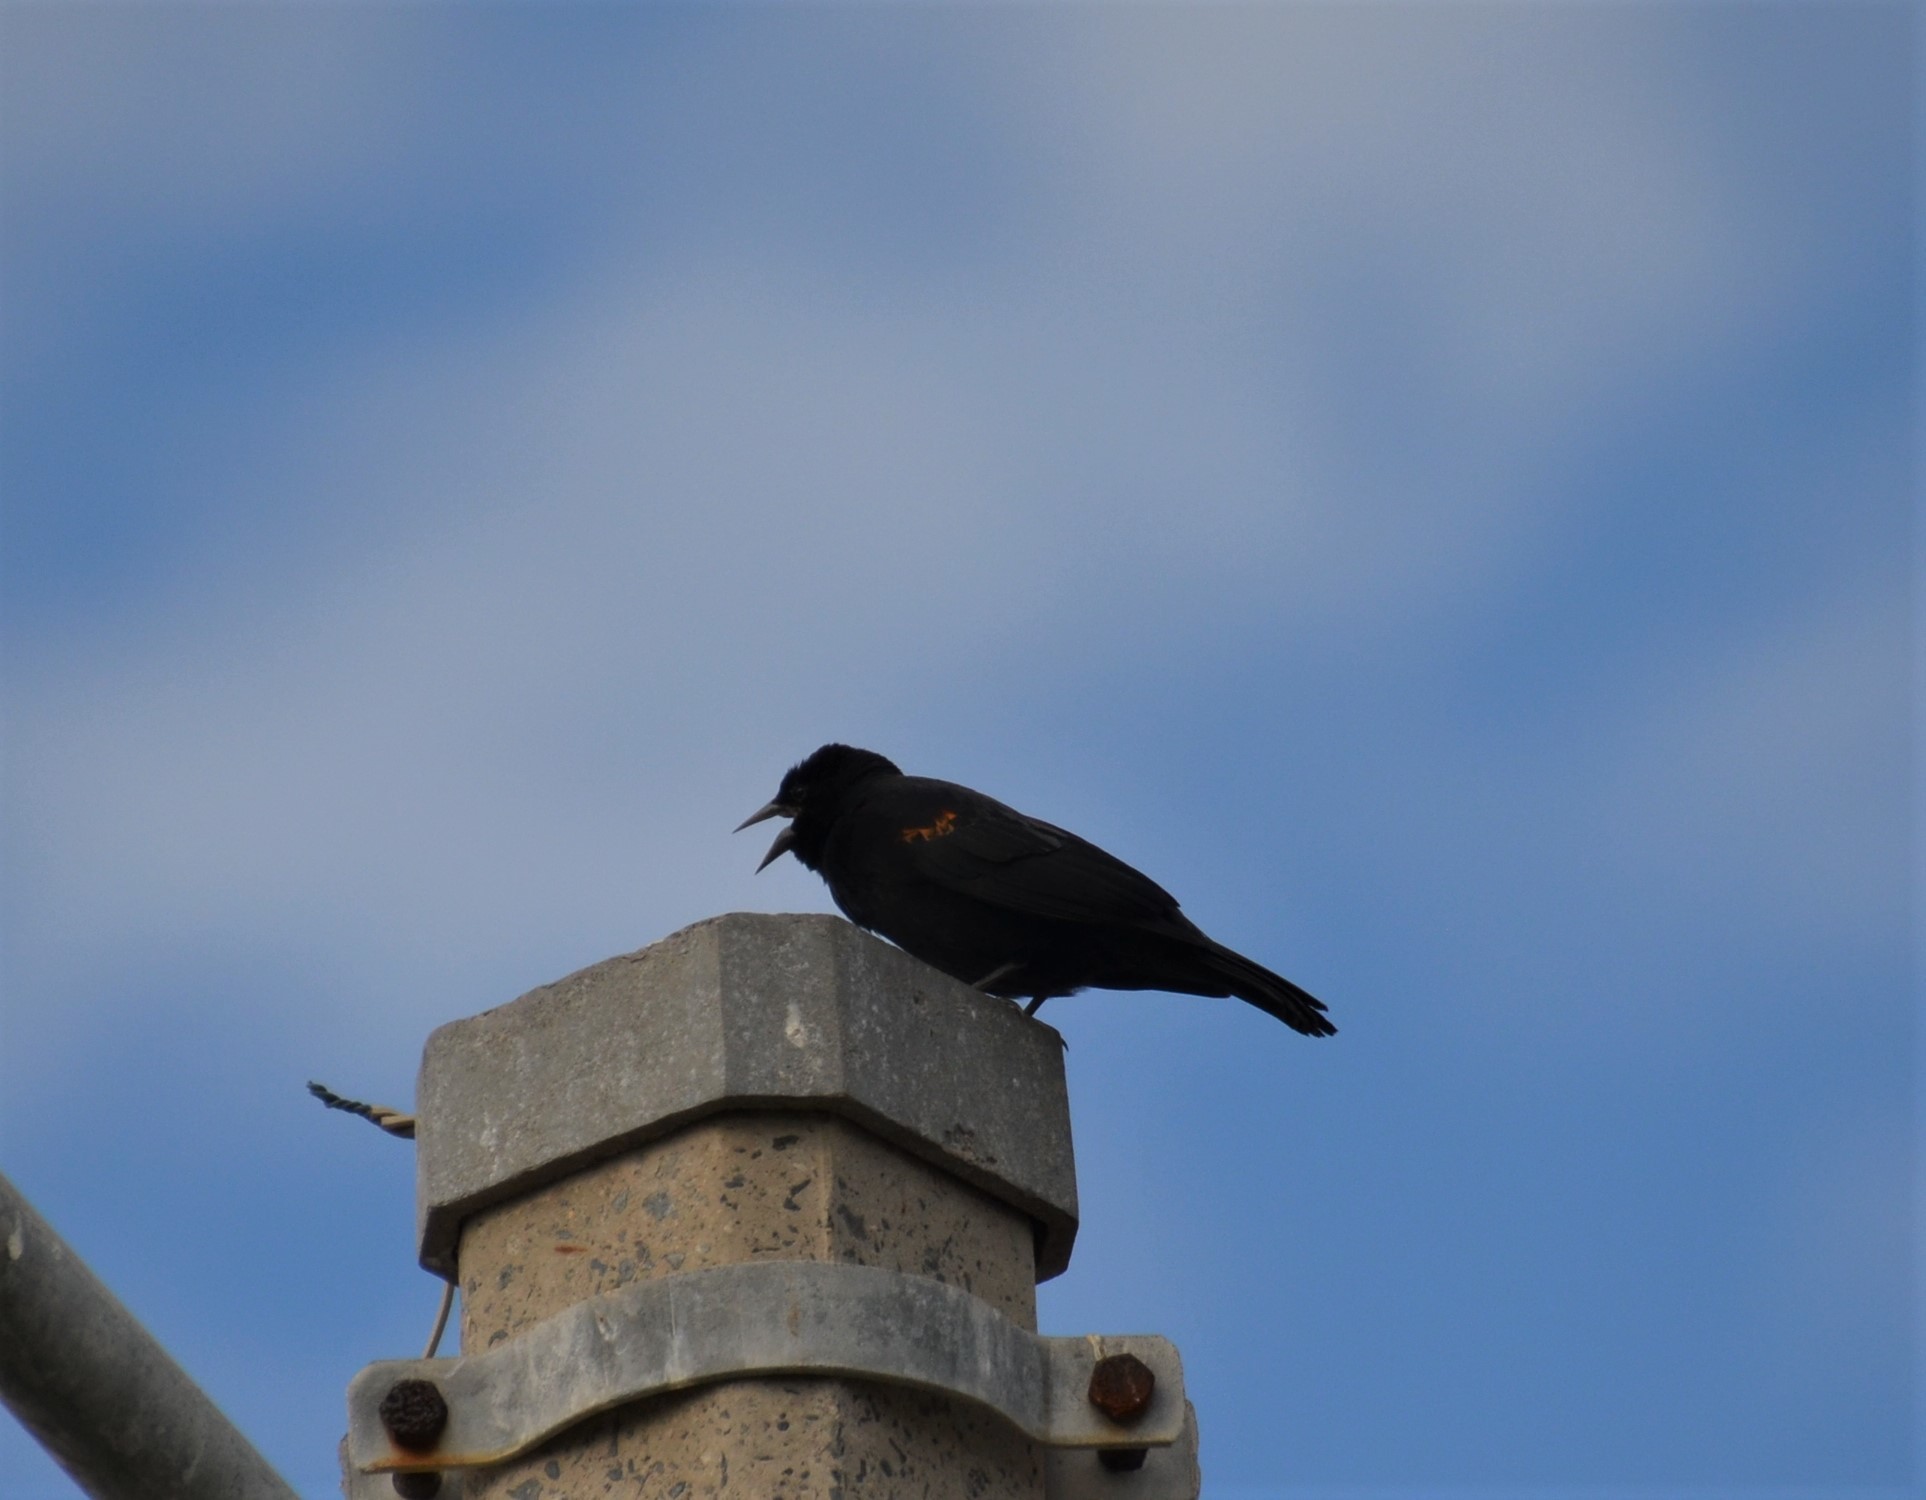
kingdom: Animalia
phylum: Chordata
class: Aves
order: Passeriformes
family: Icteridae
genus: Agelaius
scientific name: Agelaius phoeniceus
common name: Red-winged blackbird
